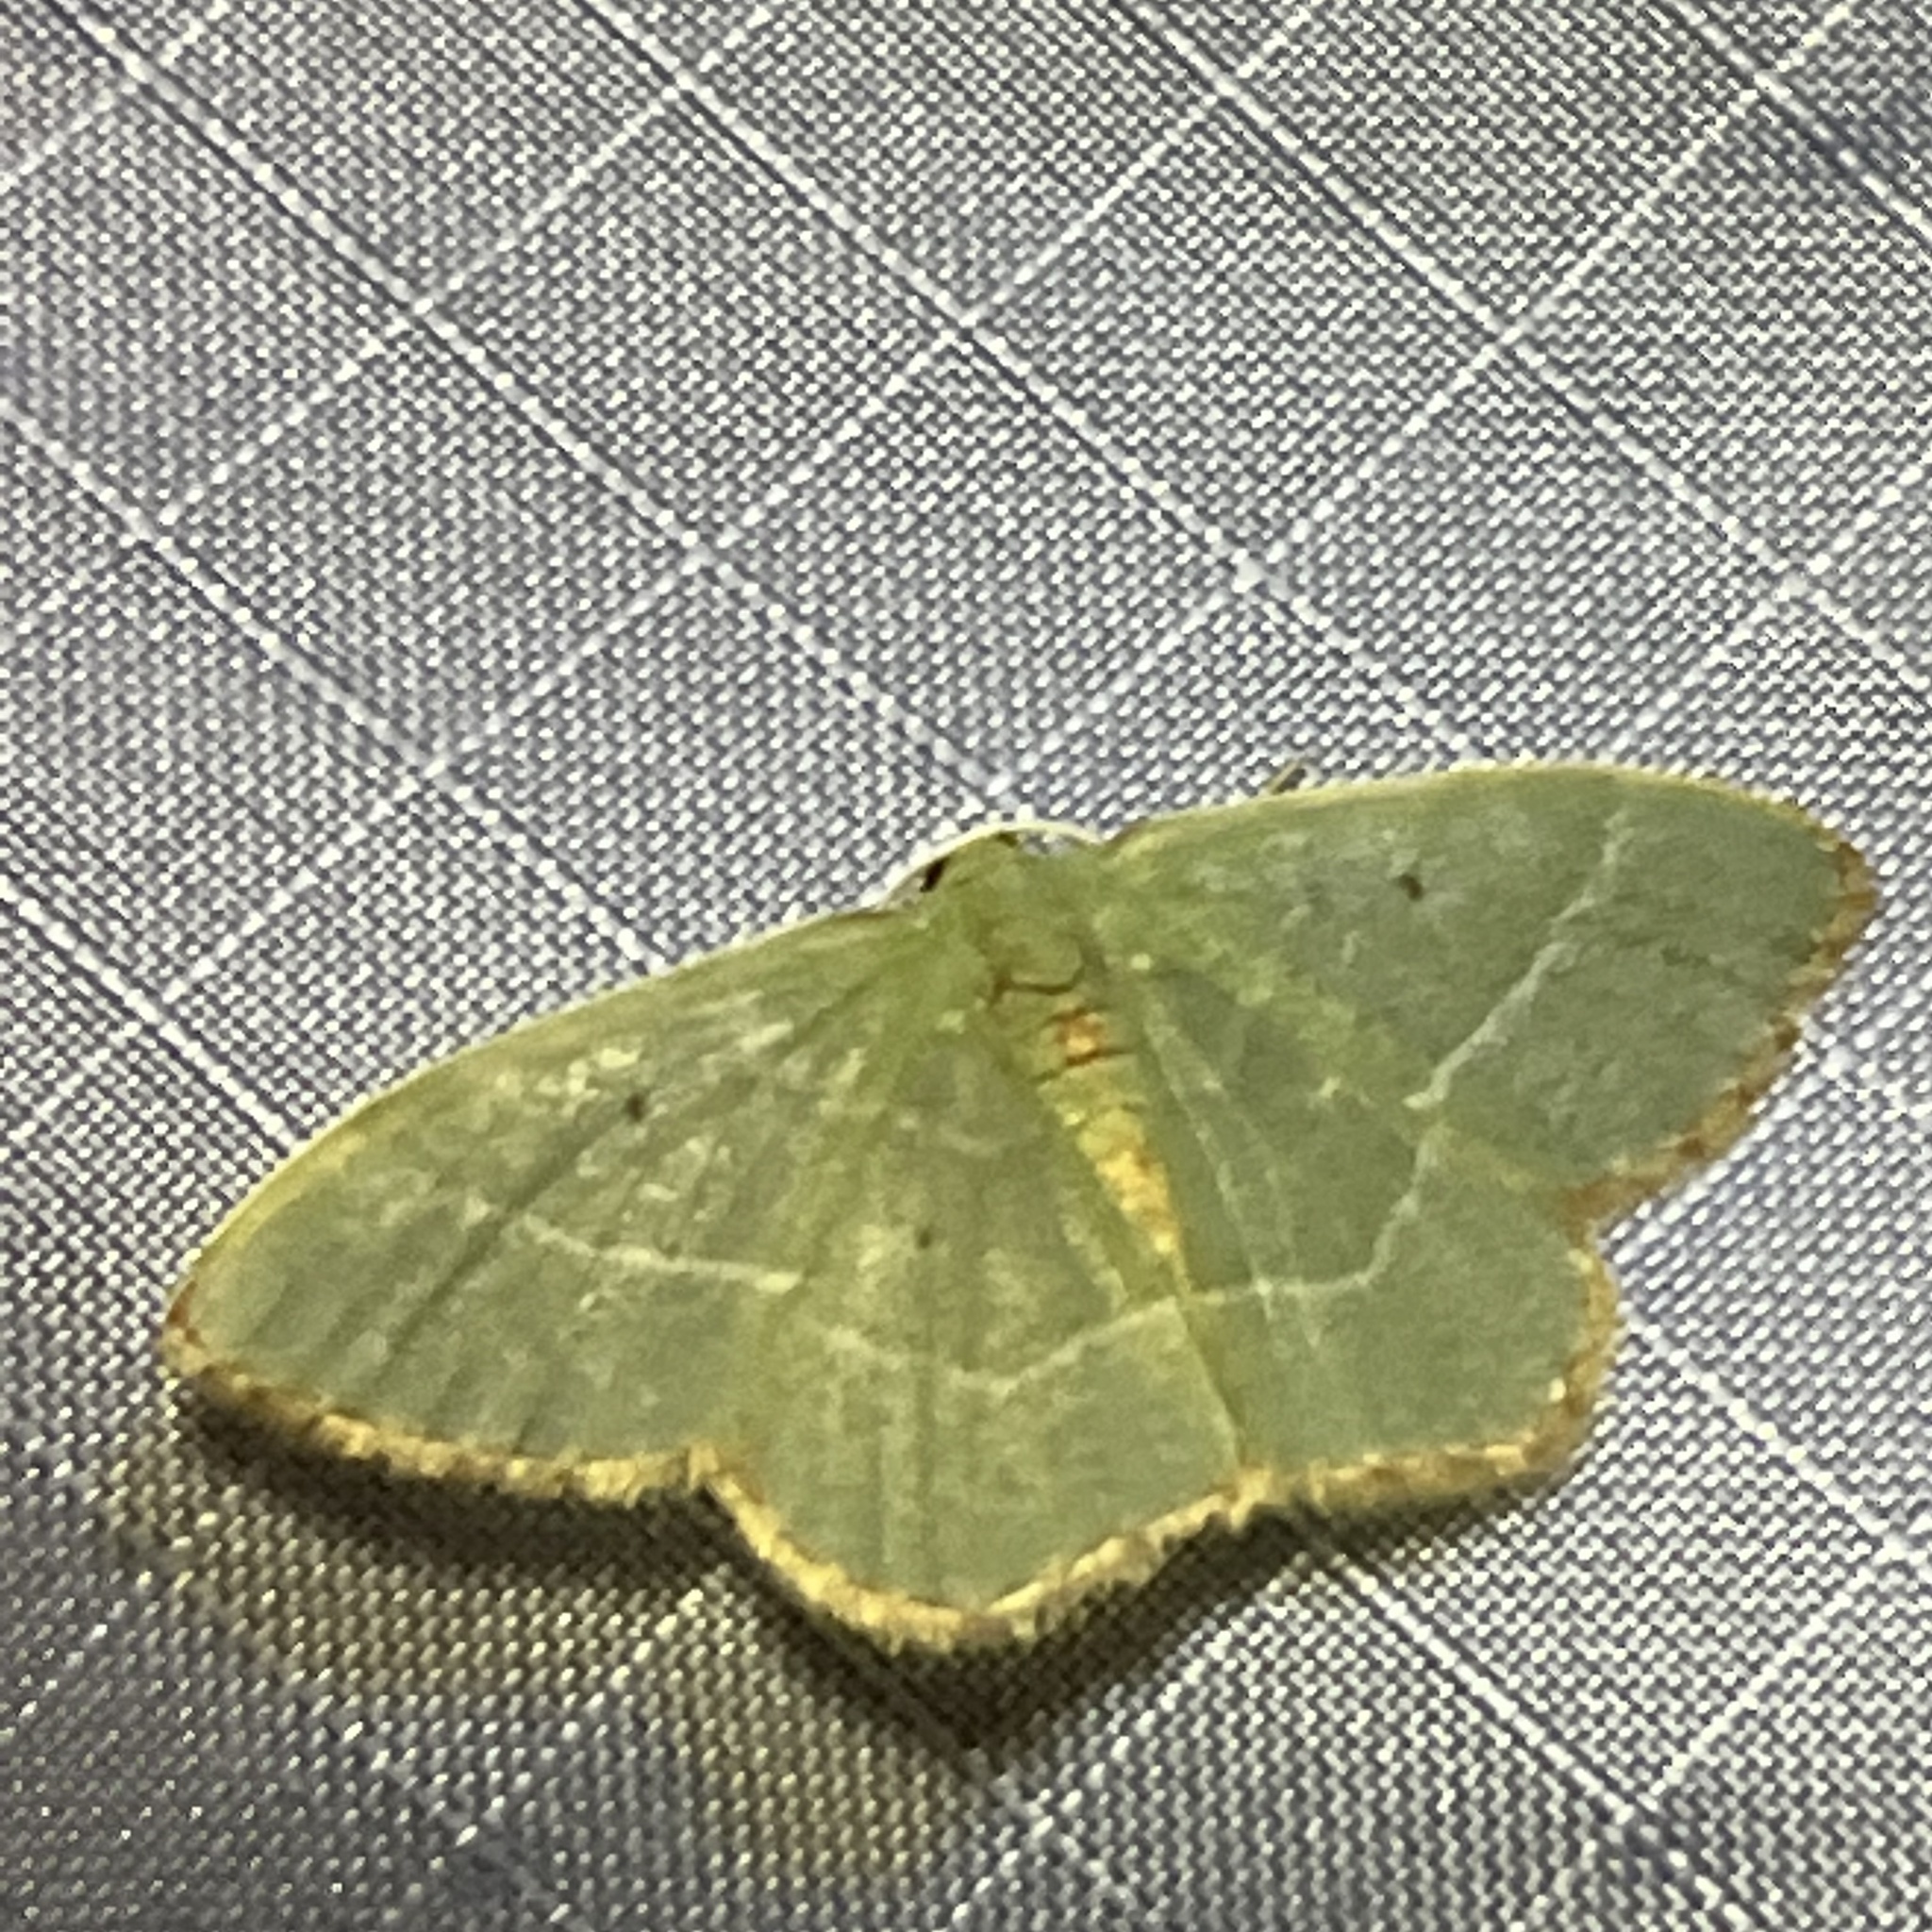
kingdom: Animalia
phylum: Arthropoda
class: Insecta
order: Lepidoptera
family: Geometridae
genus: Nemoria
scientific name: Nemoria bistriaria
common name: Red-fringed emerald
